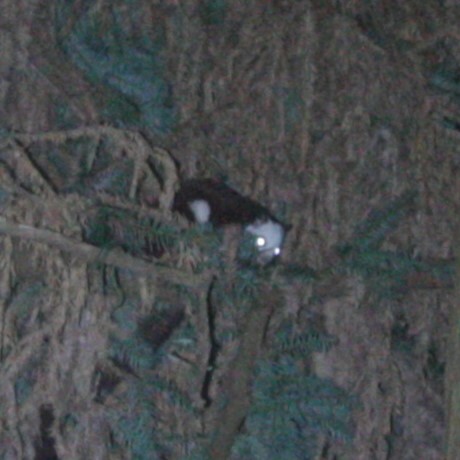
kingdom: Animalia
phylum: Chordata
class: Mammalia
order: Rodentia
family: Sciuridae
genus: Petaurista
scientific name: Petaurista lena
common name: Taiwan giant flying squirrel
